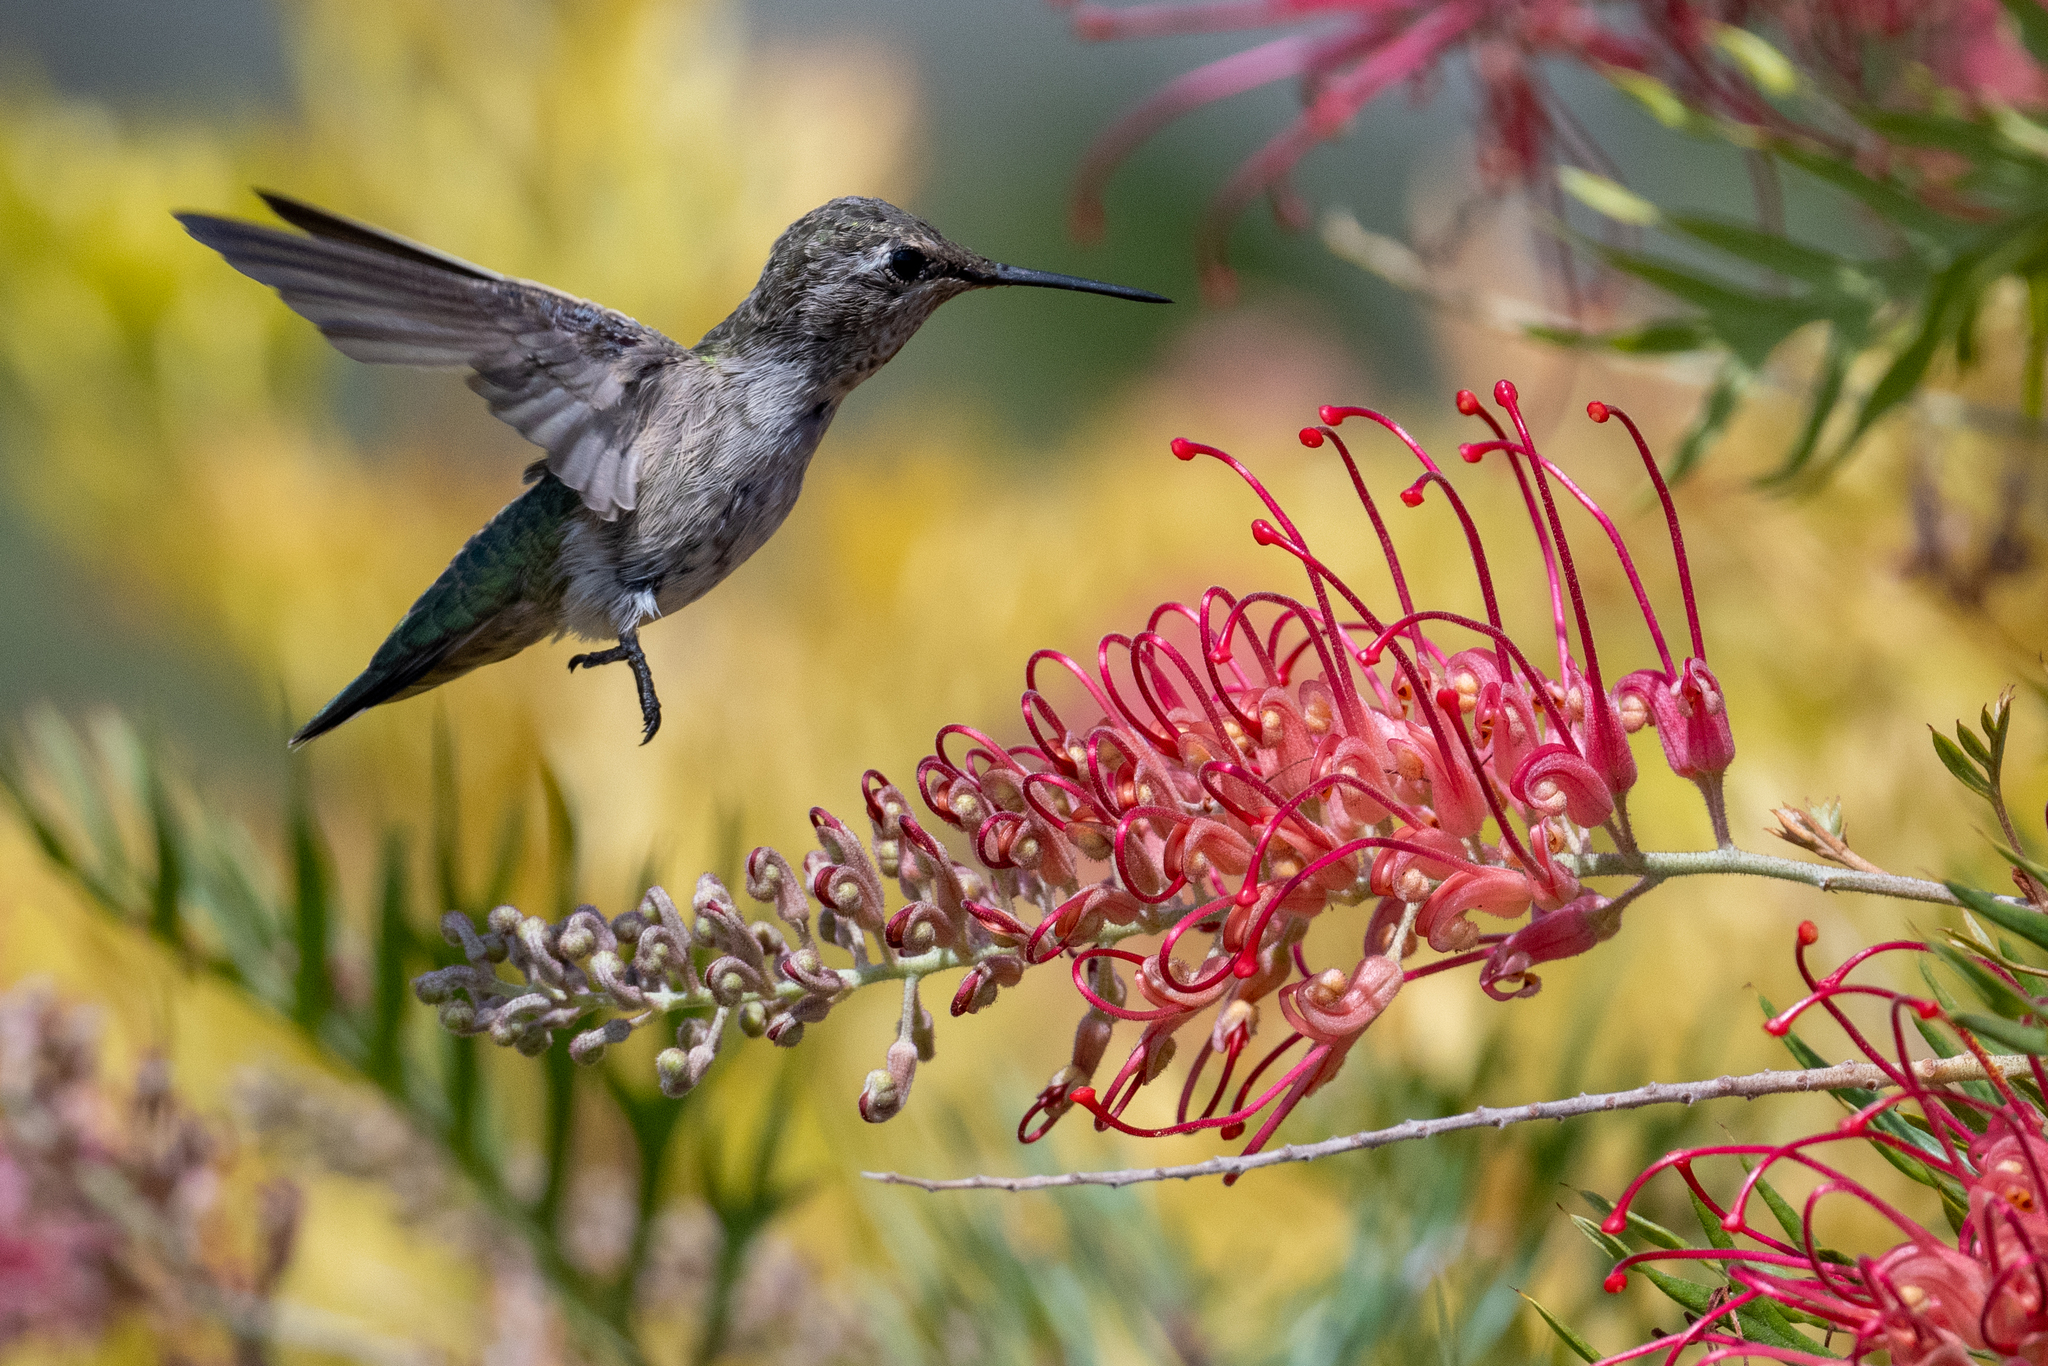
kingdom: Animalia
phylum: Chordata
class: Aves
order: Apodiformes
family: Trochilidae
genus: Calypte
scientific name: Calypte anna
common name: Anna's hummingbird
